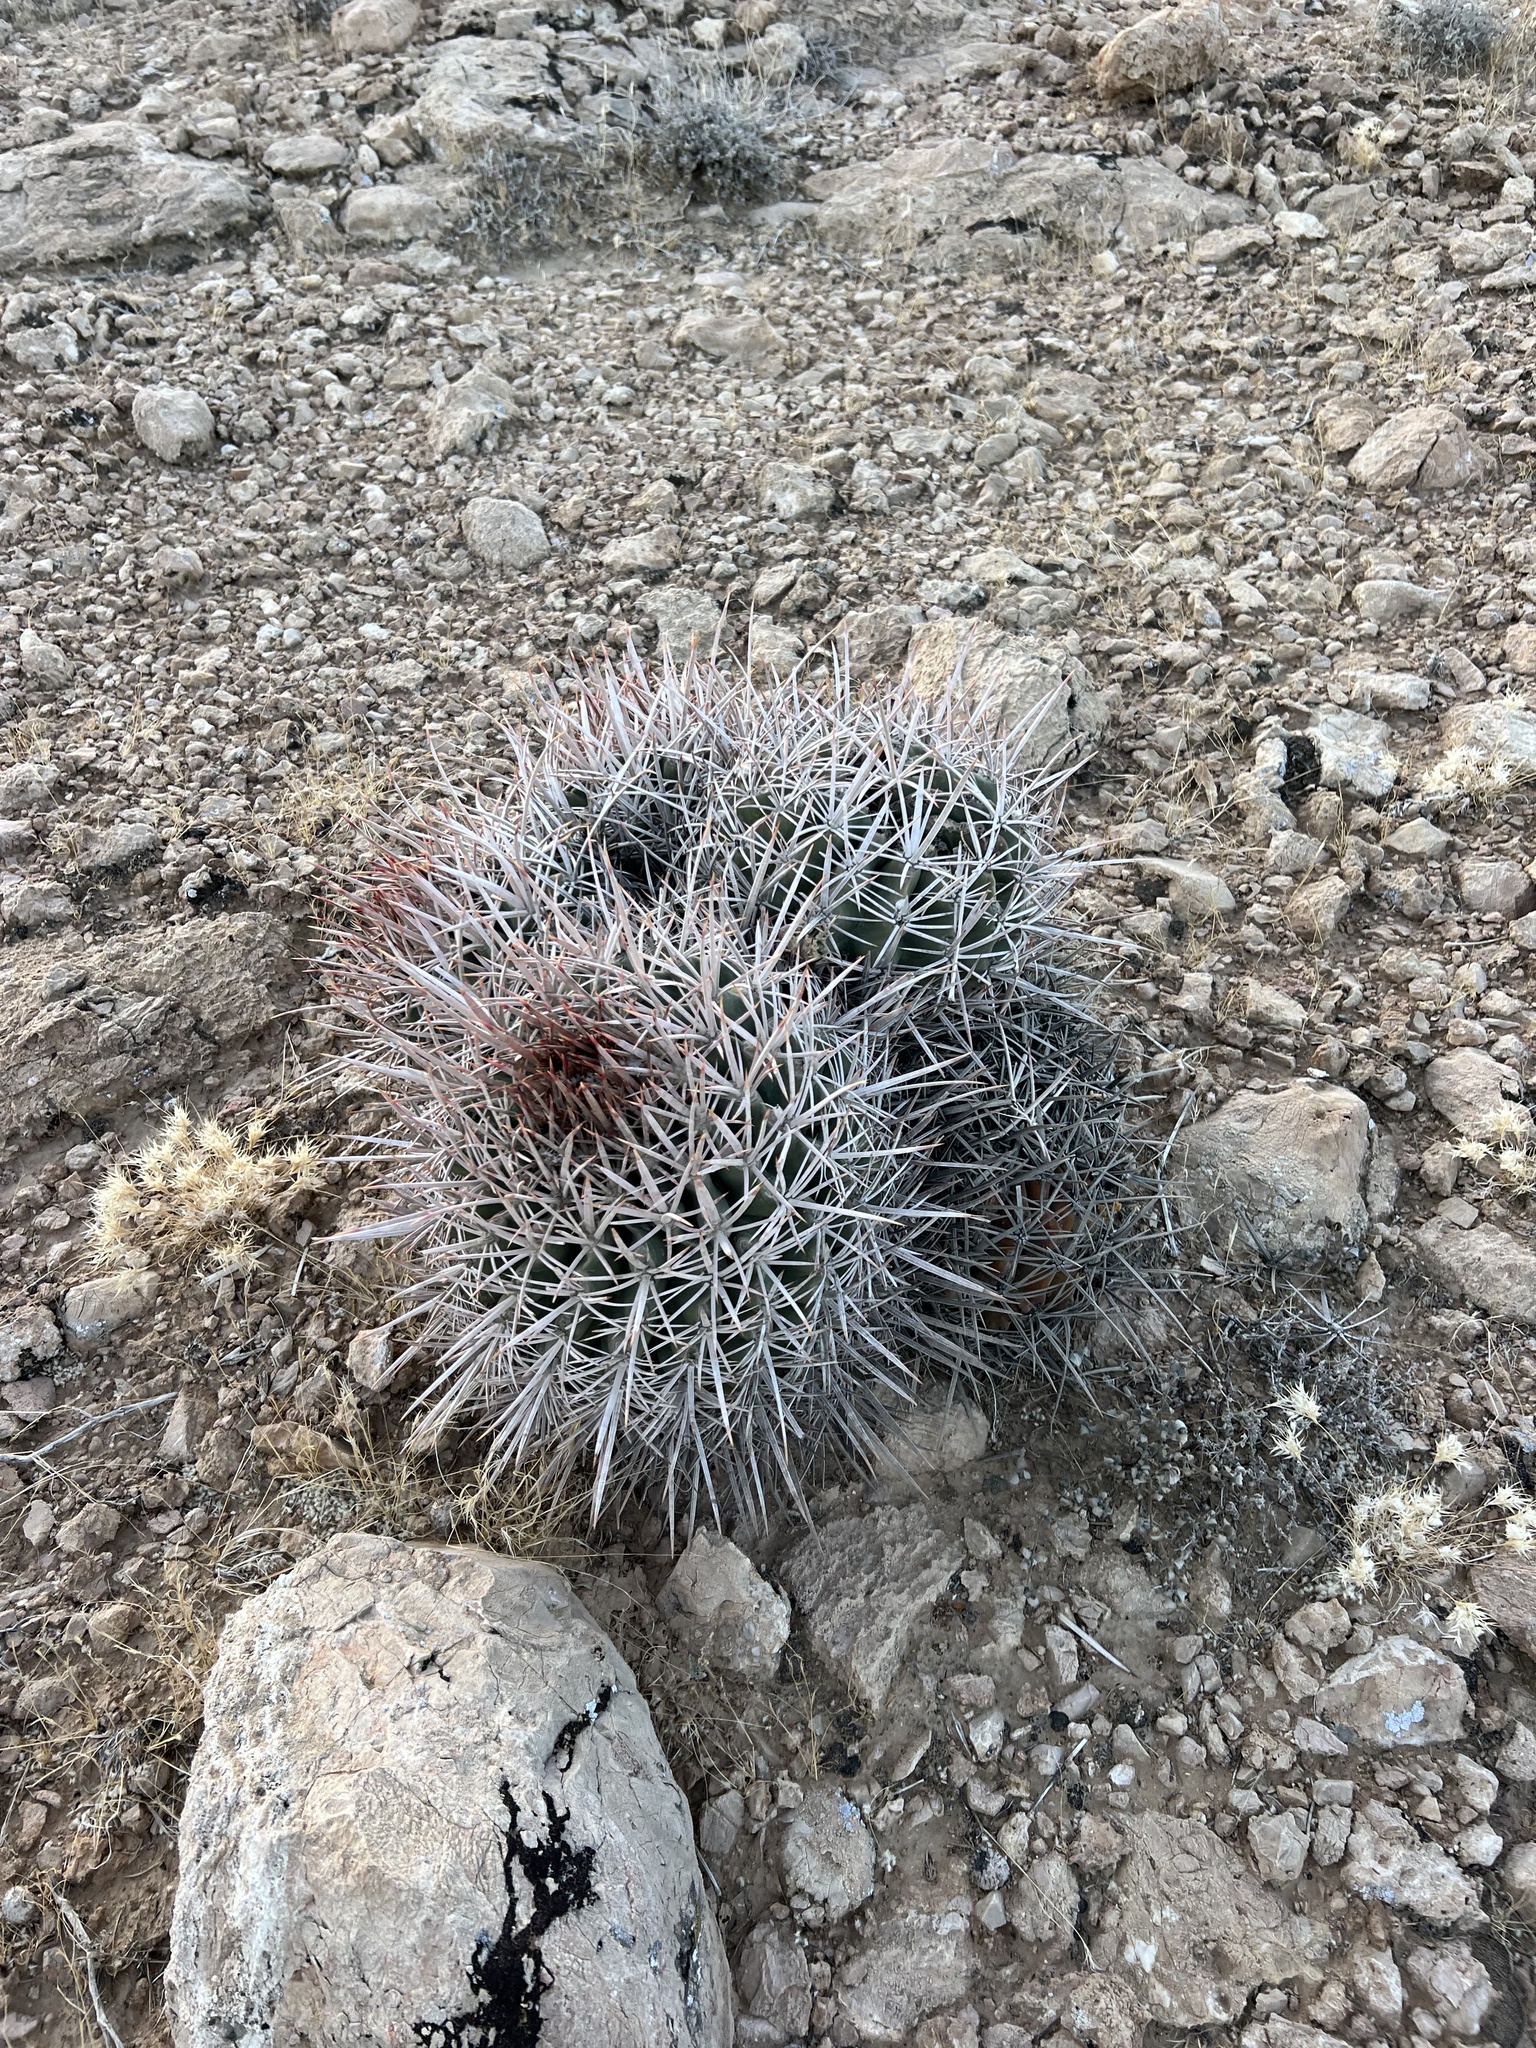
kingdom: Plantae
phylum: Tracheophyta
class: Magnoliopsida
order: Caryophyllales
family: Cactaceae
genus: Echinocactus
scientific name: Echinocactus polycephalus
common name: Cottontop cactus
